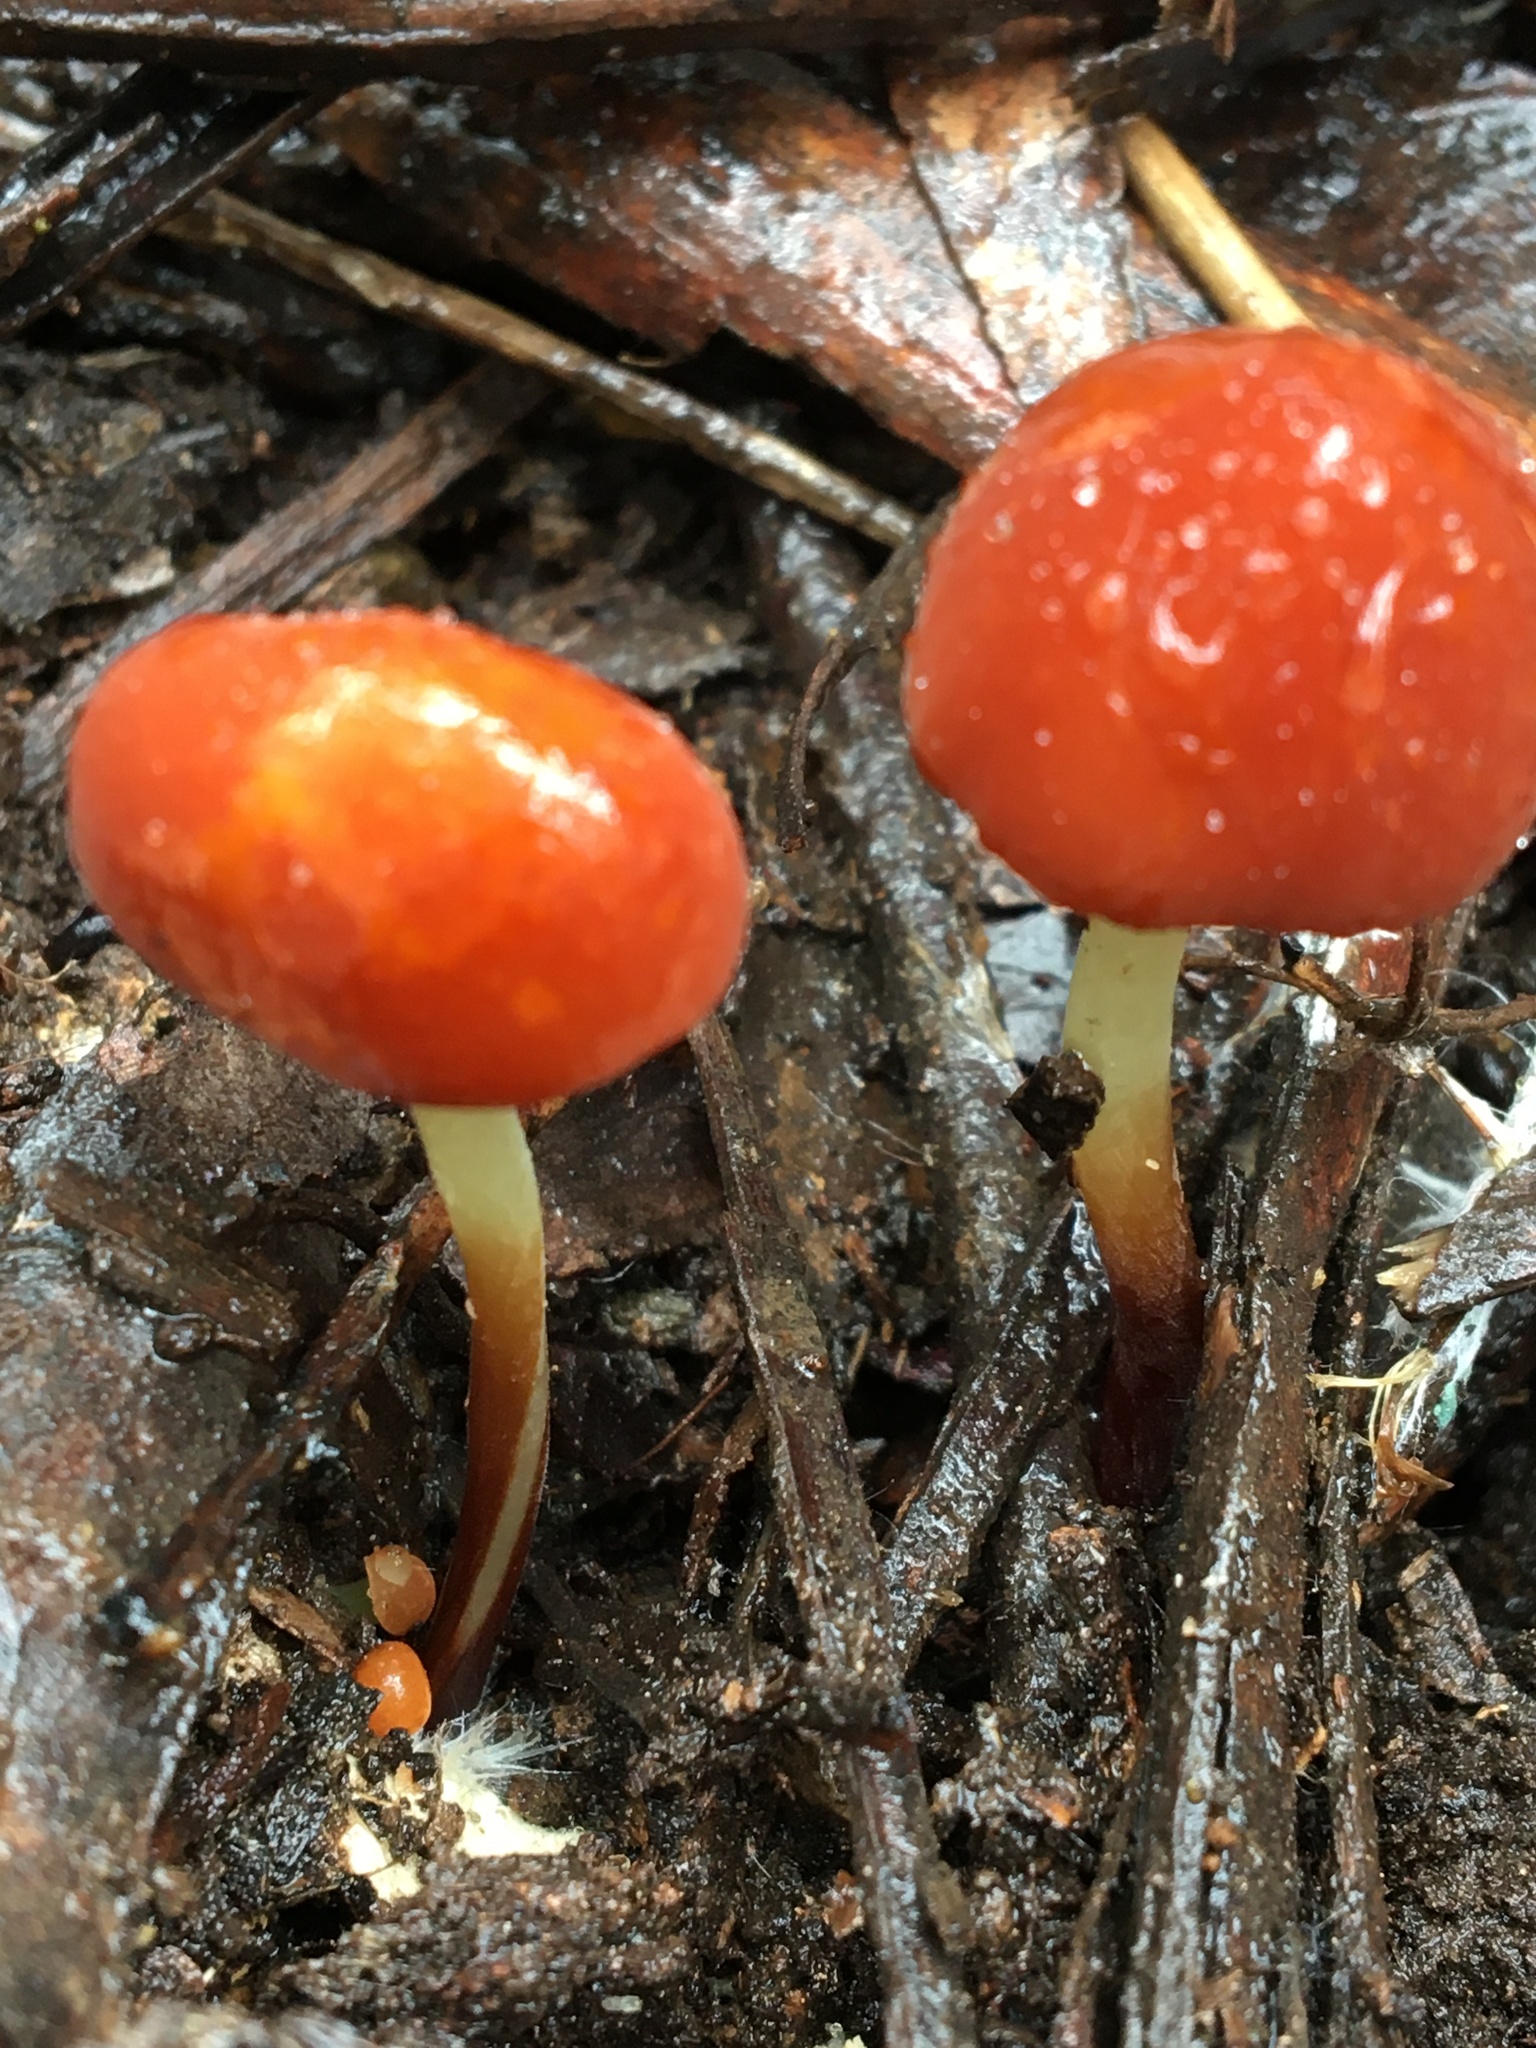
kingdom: Fungi
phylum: Basidiomycota
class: Agaricomycetes
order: Agaricales
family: Marasmiaceae
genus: Marasmius
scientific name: Marasmius elegans
